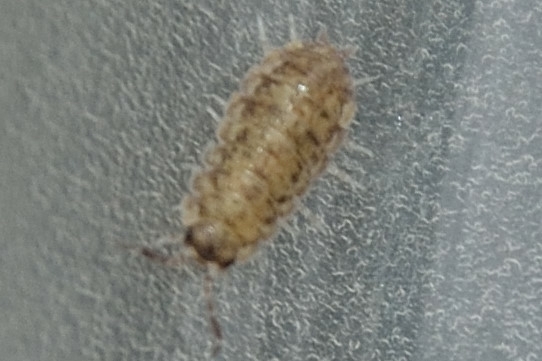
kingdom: Animalia
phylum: Arthropoda
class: Malacostraca
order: Isopoda
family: Porcellionidae
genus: Porcellio
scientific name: Porcellio scaber
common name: Common rough woodlouse
